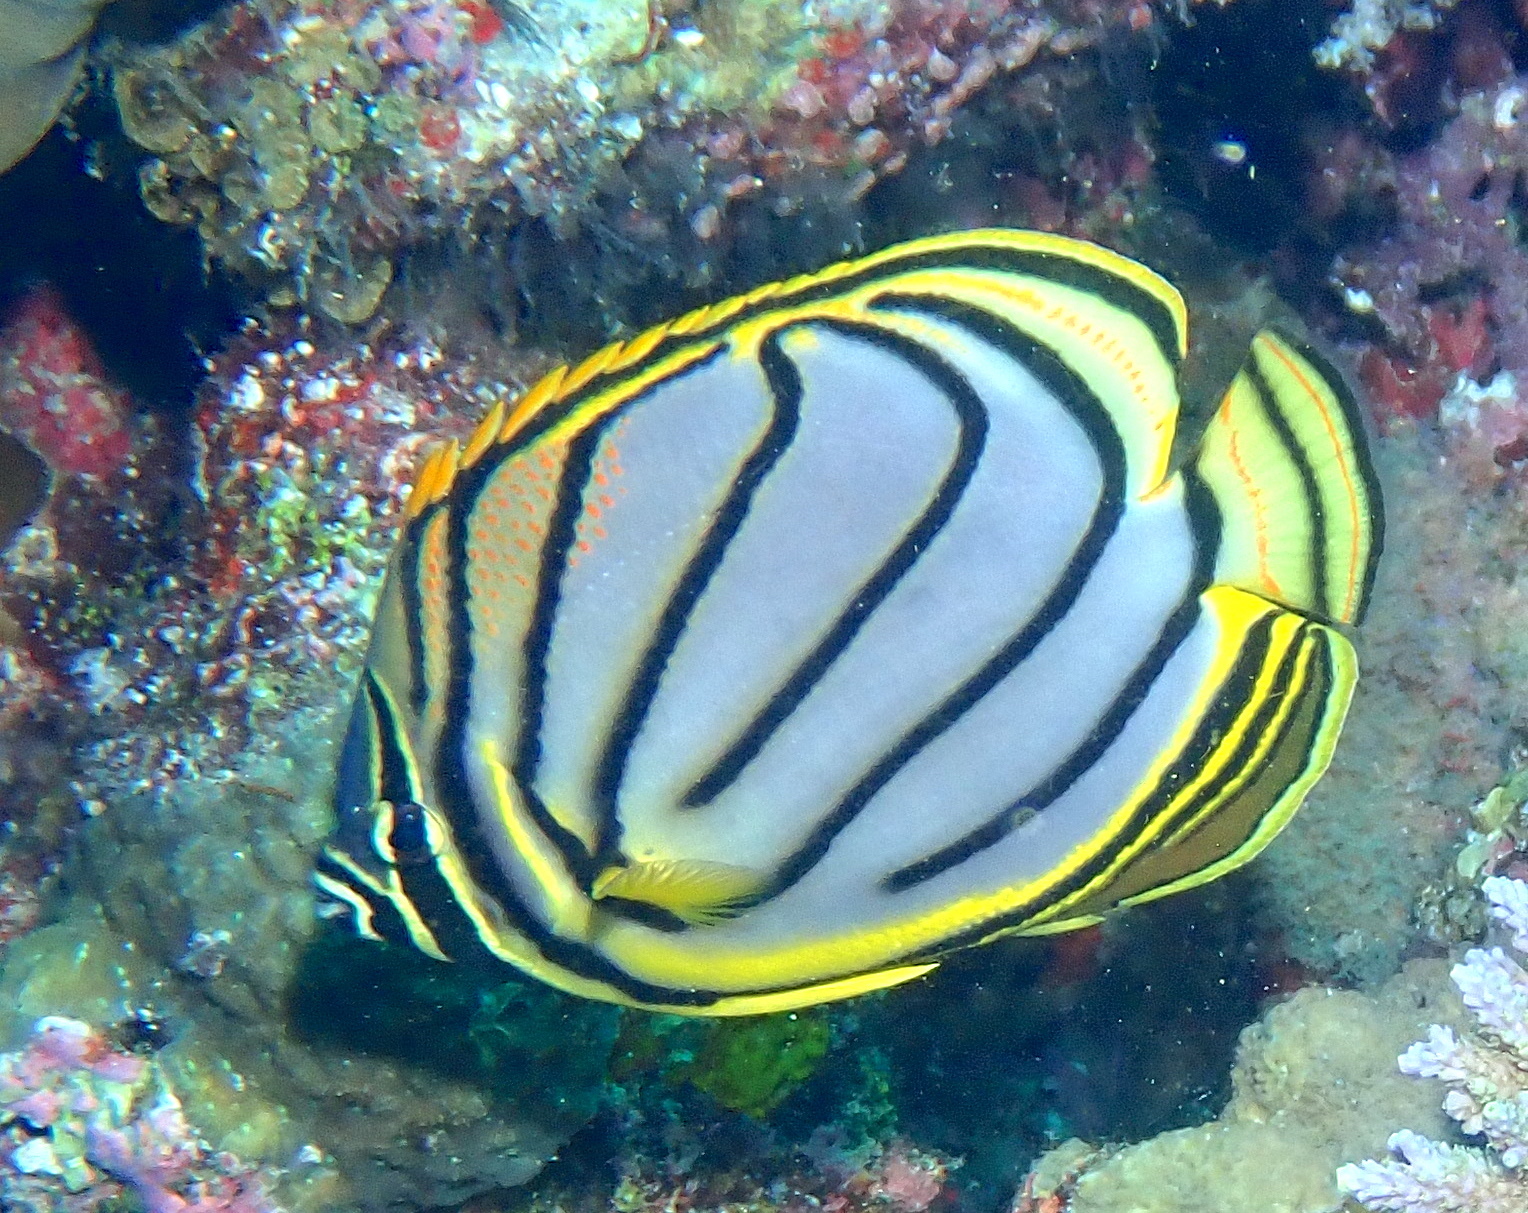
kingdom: Animalia
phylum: Chordata
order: Perciformes
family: Chaetodontidae
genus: Chaetodon
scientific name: Chaetodon meyeri
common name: Meyer's butterflyfish
